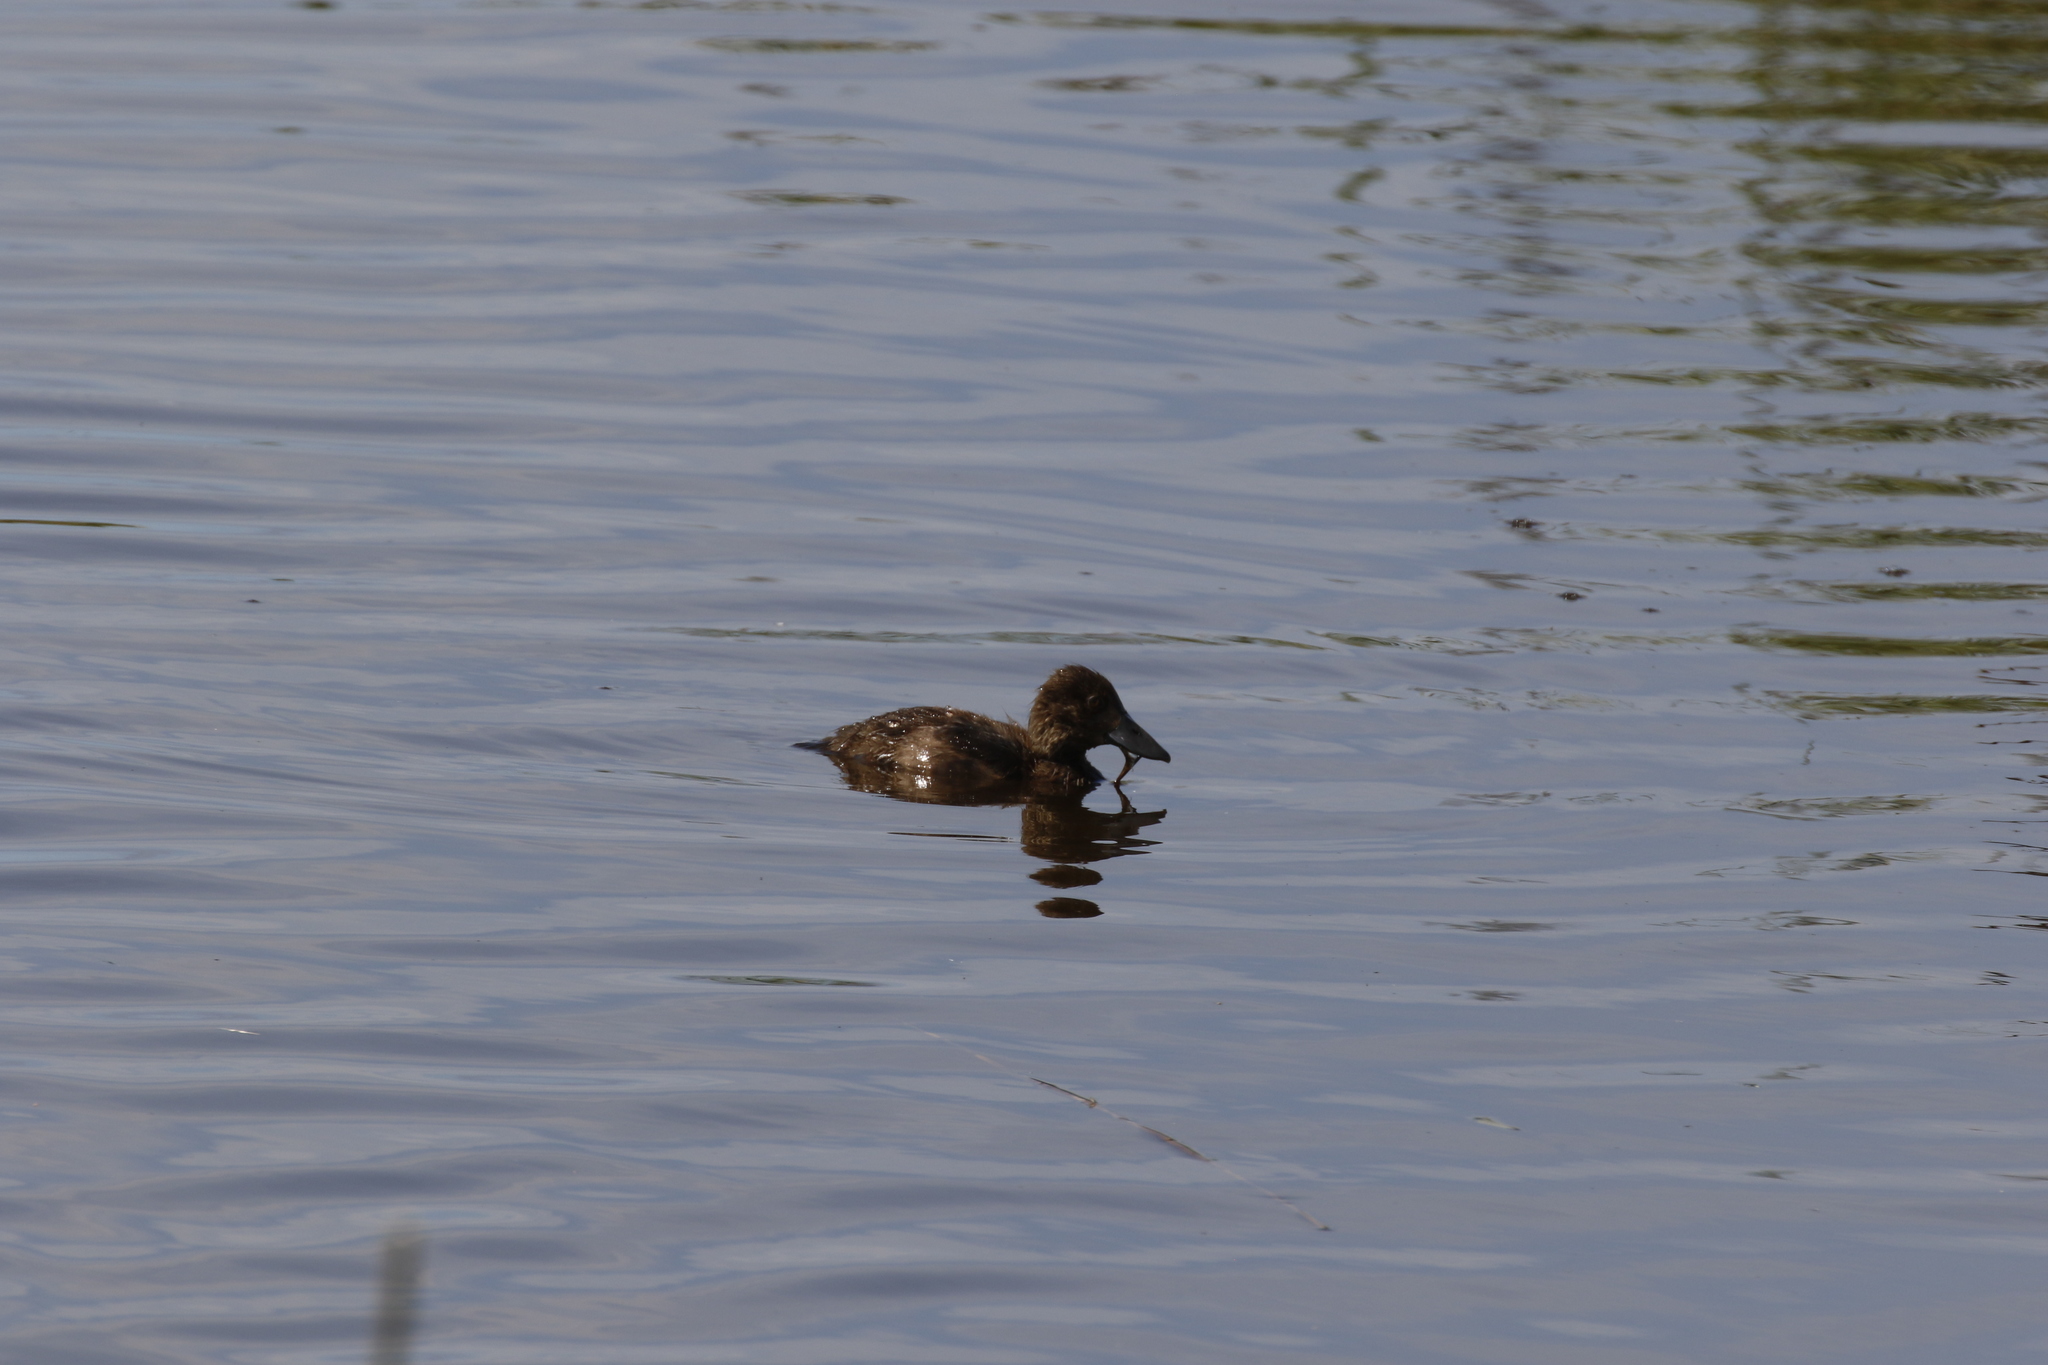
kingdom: Animalia
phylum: Chordata
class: Aves
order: Anseriformes
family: Anatidae
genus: Aythya
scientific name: Aythya fuligula
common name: Tufted duck
